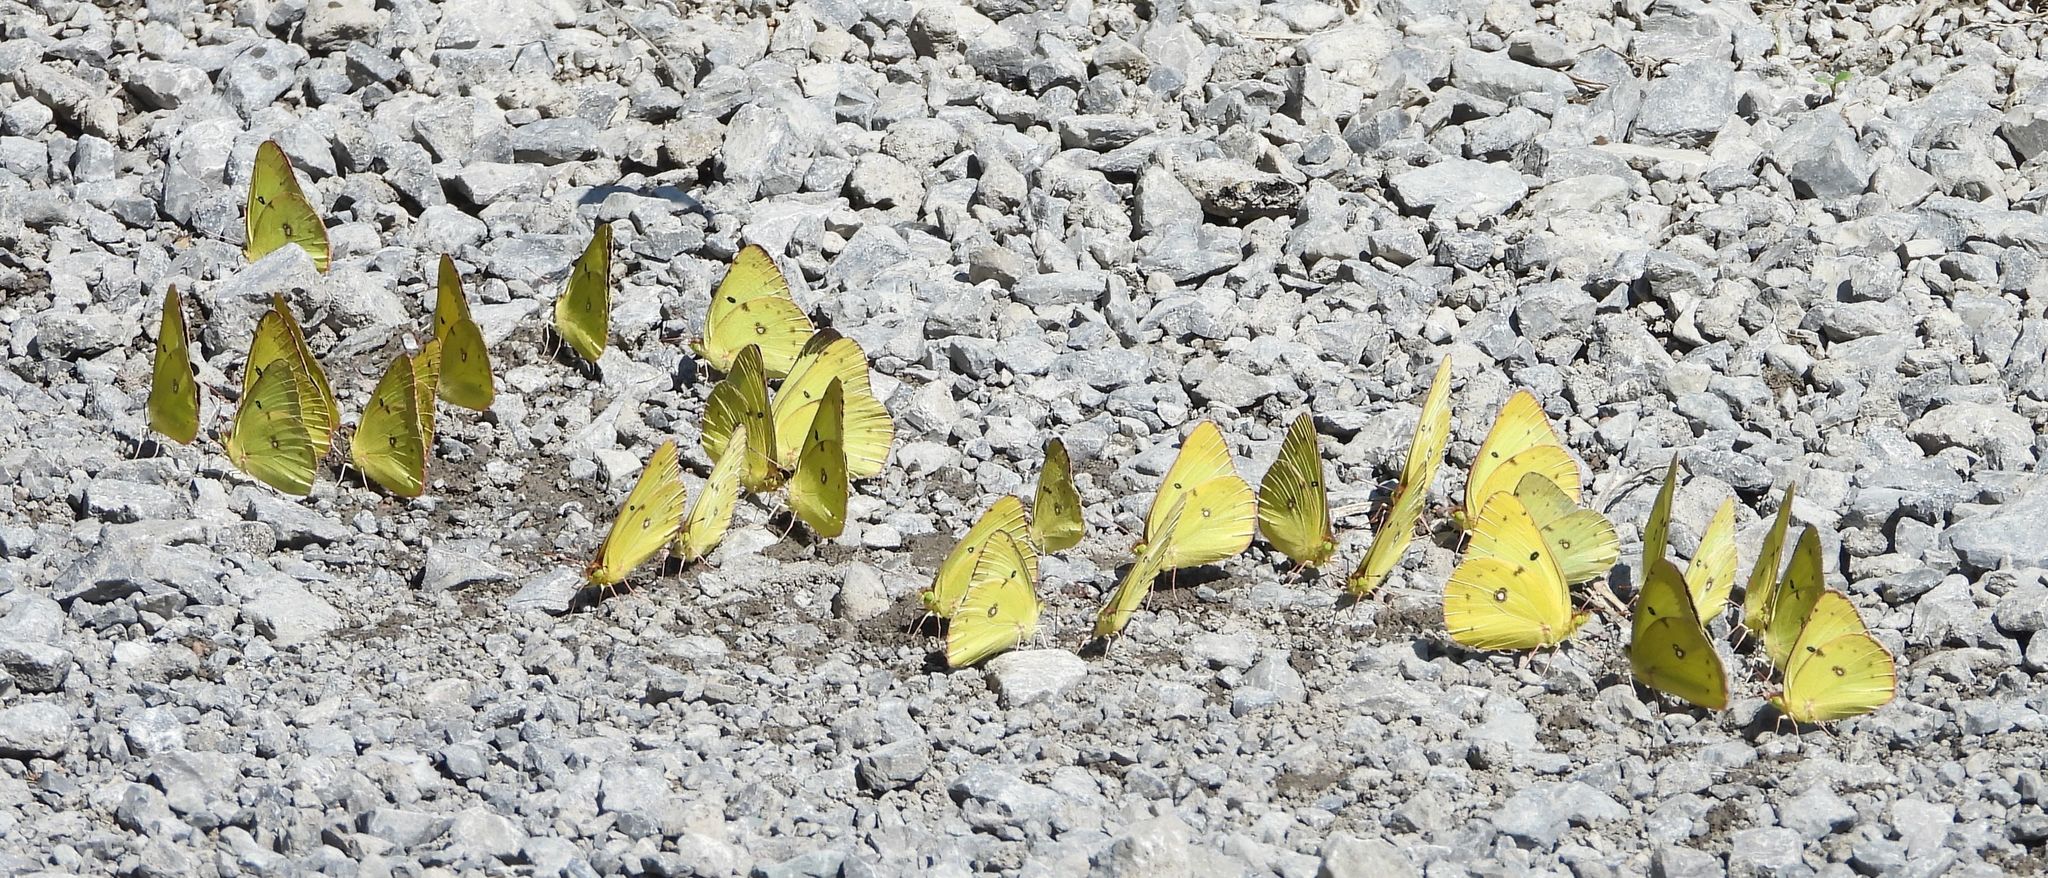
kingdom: Animalia
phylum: Arthropoda
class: Insecta
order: Lepidoptera
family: Pieridae
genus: Colias
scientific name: Colias philodice
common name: Clouded sulphur
